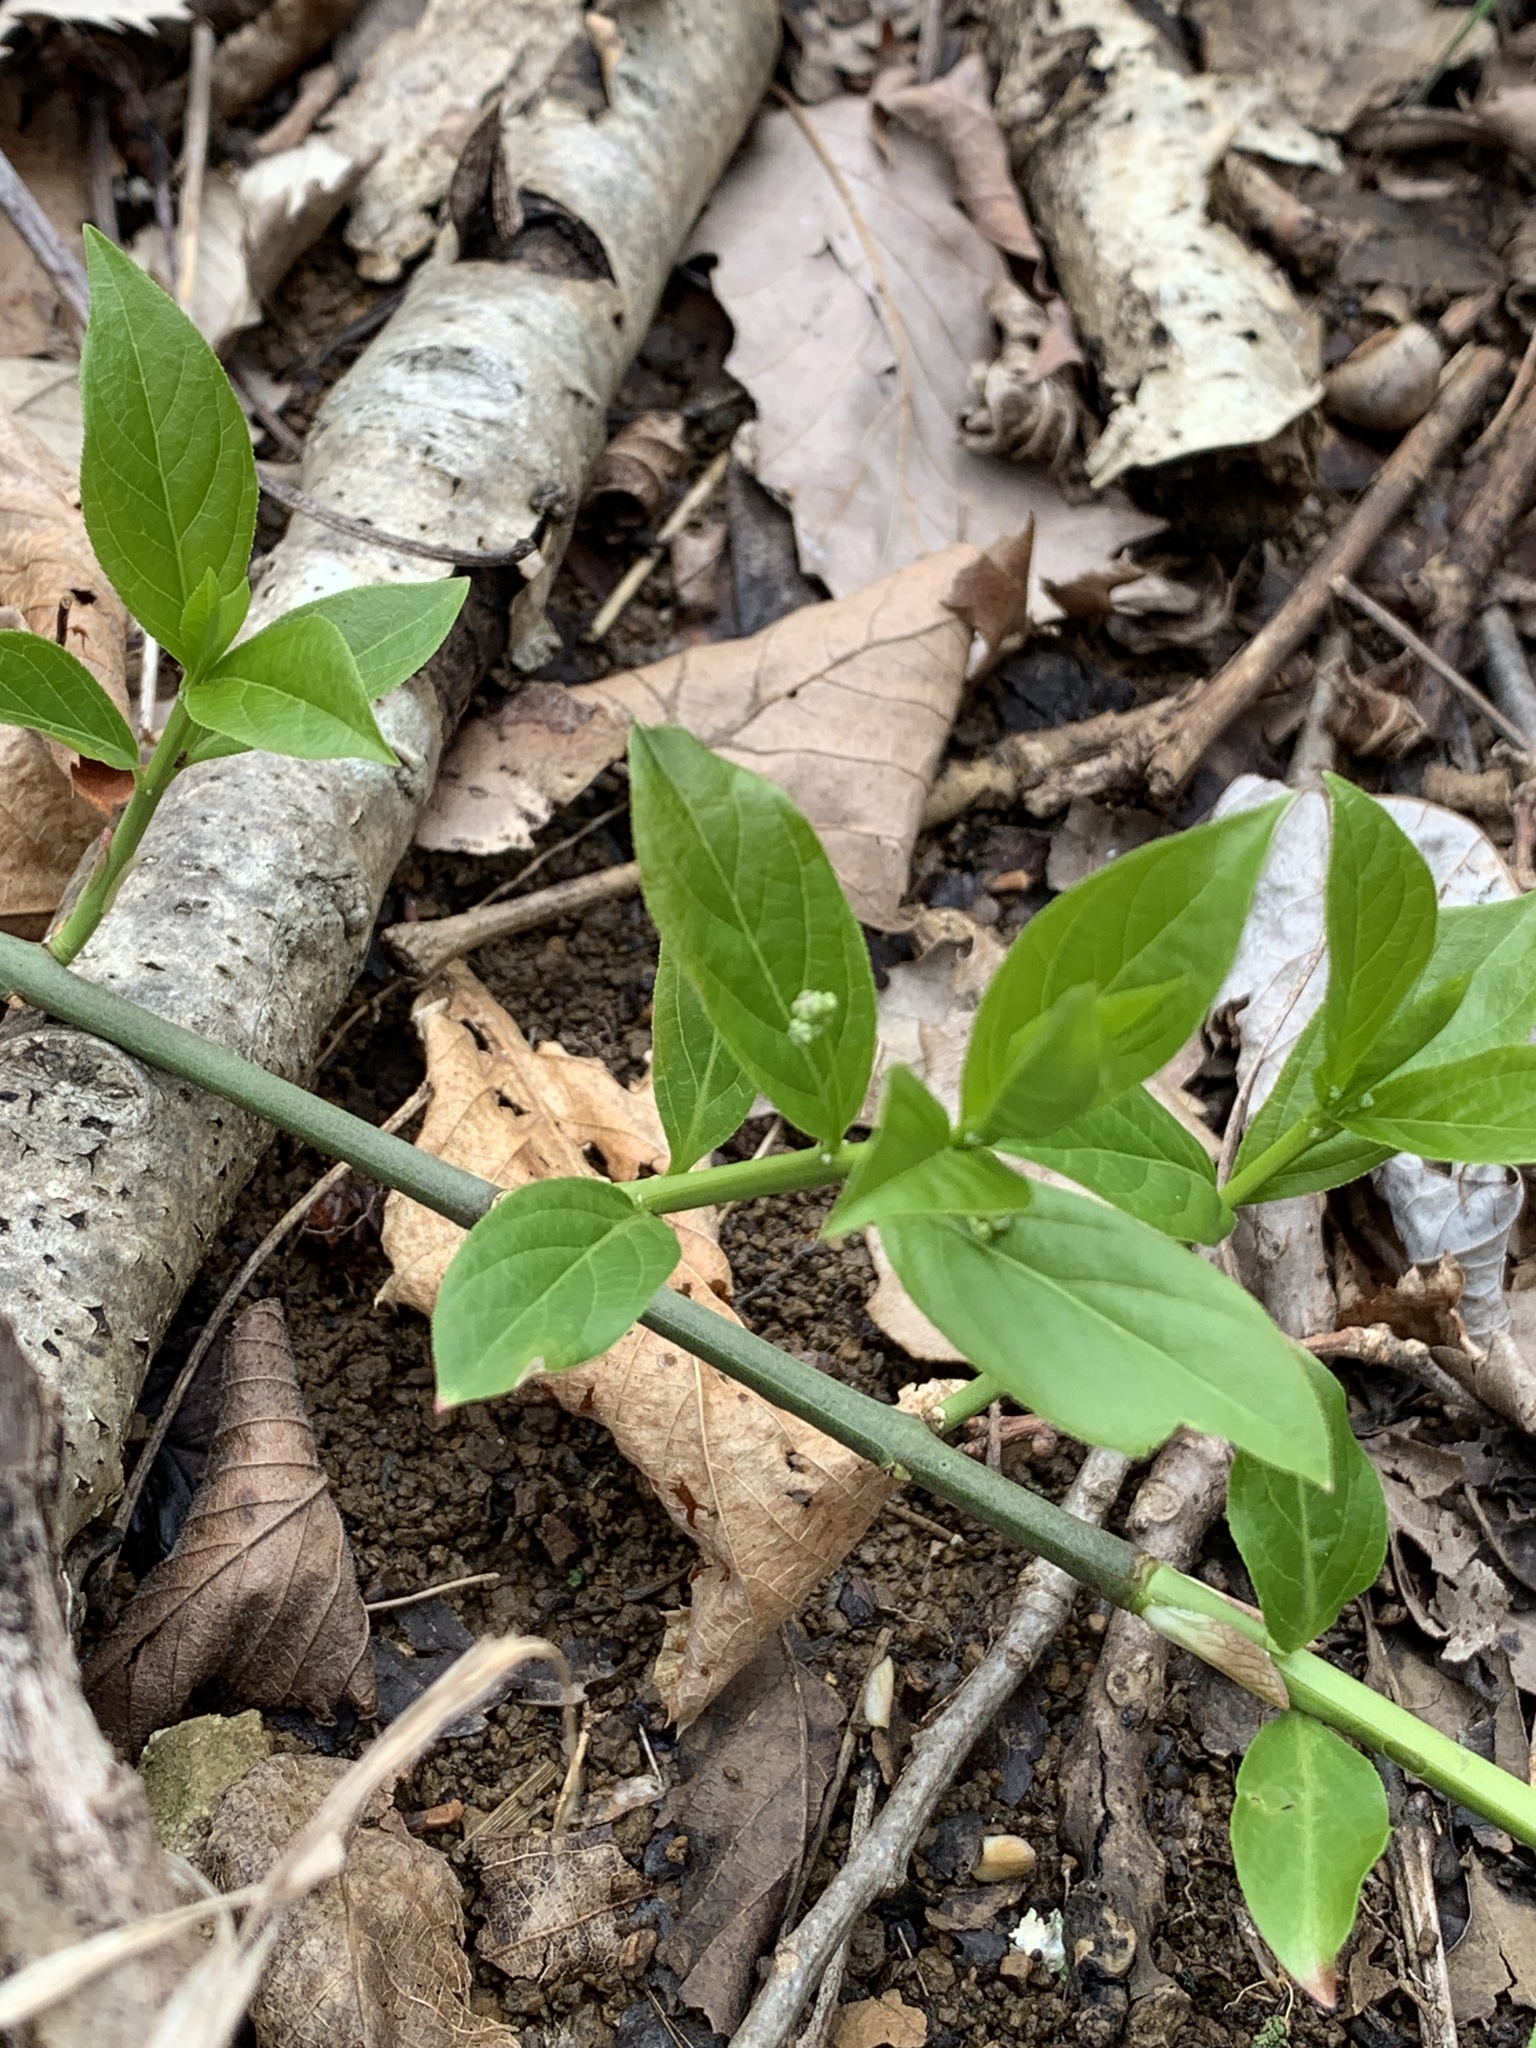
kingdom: Plantae
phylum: Tracheophyta
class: Magnoliopsida
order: Celastrales
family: Celastraceae
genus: Euonymus
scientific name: Euonymus obovatus
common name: Running strawberry-bush
